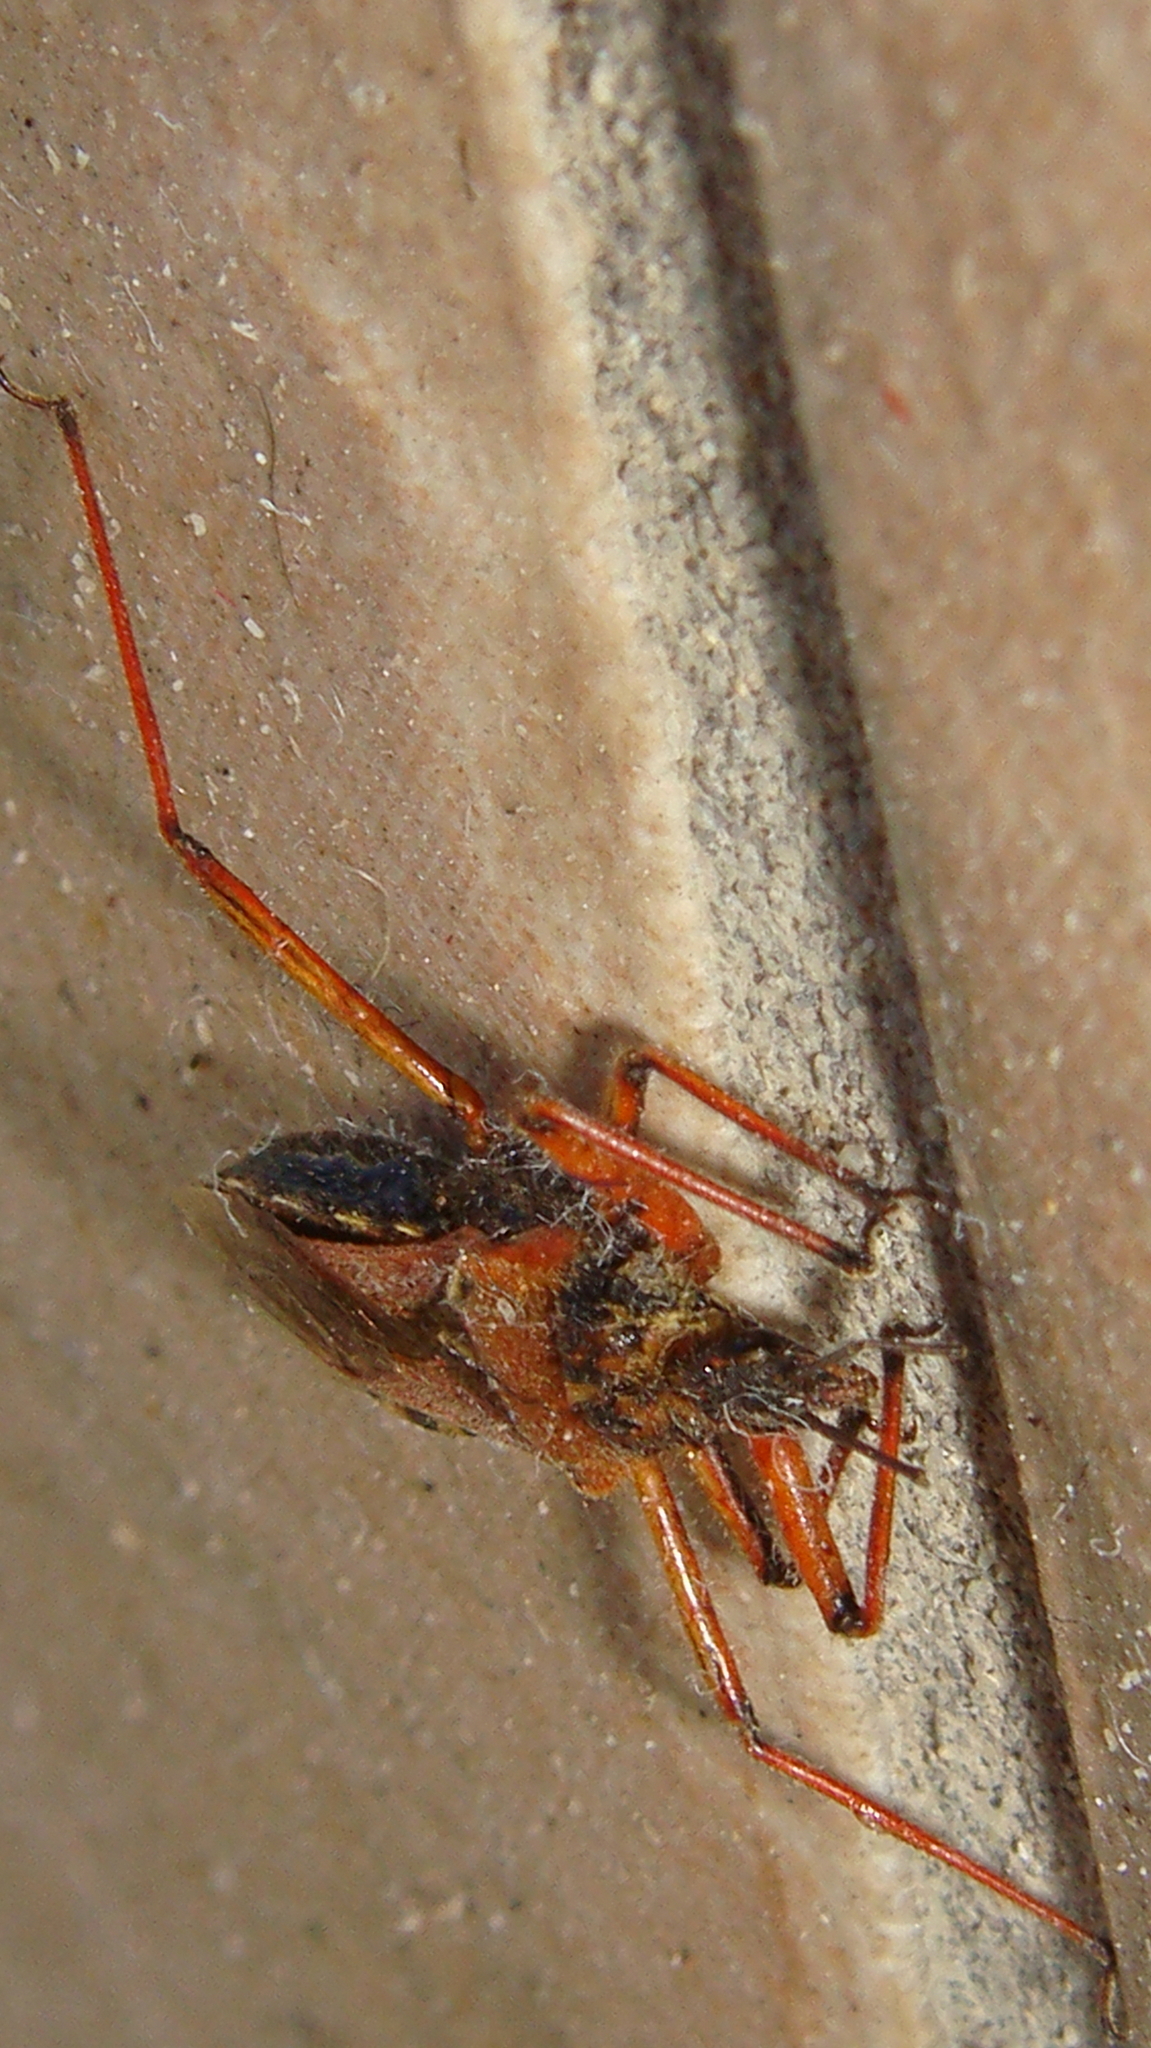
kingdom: Animalia
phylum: Arthropoda
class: Insecta
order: Hemiptera
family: Reduviidae
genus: Rhynocoris
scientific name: Rhynocoris erythropus
